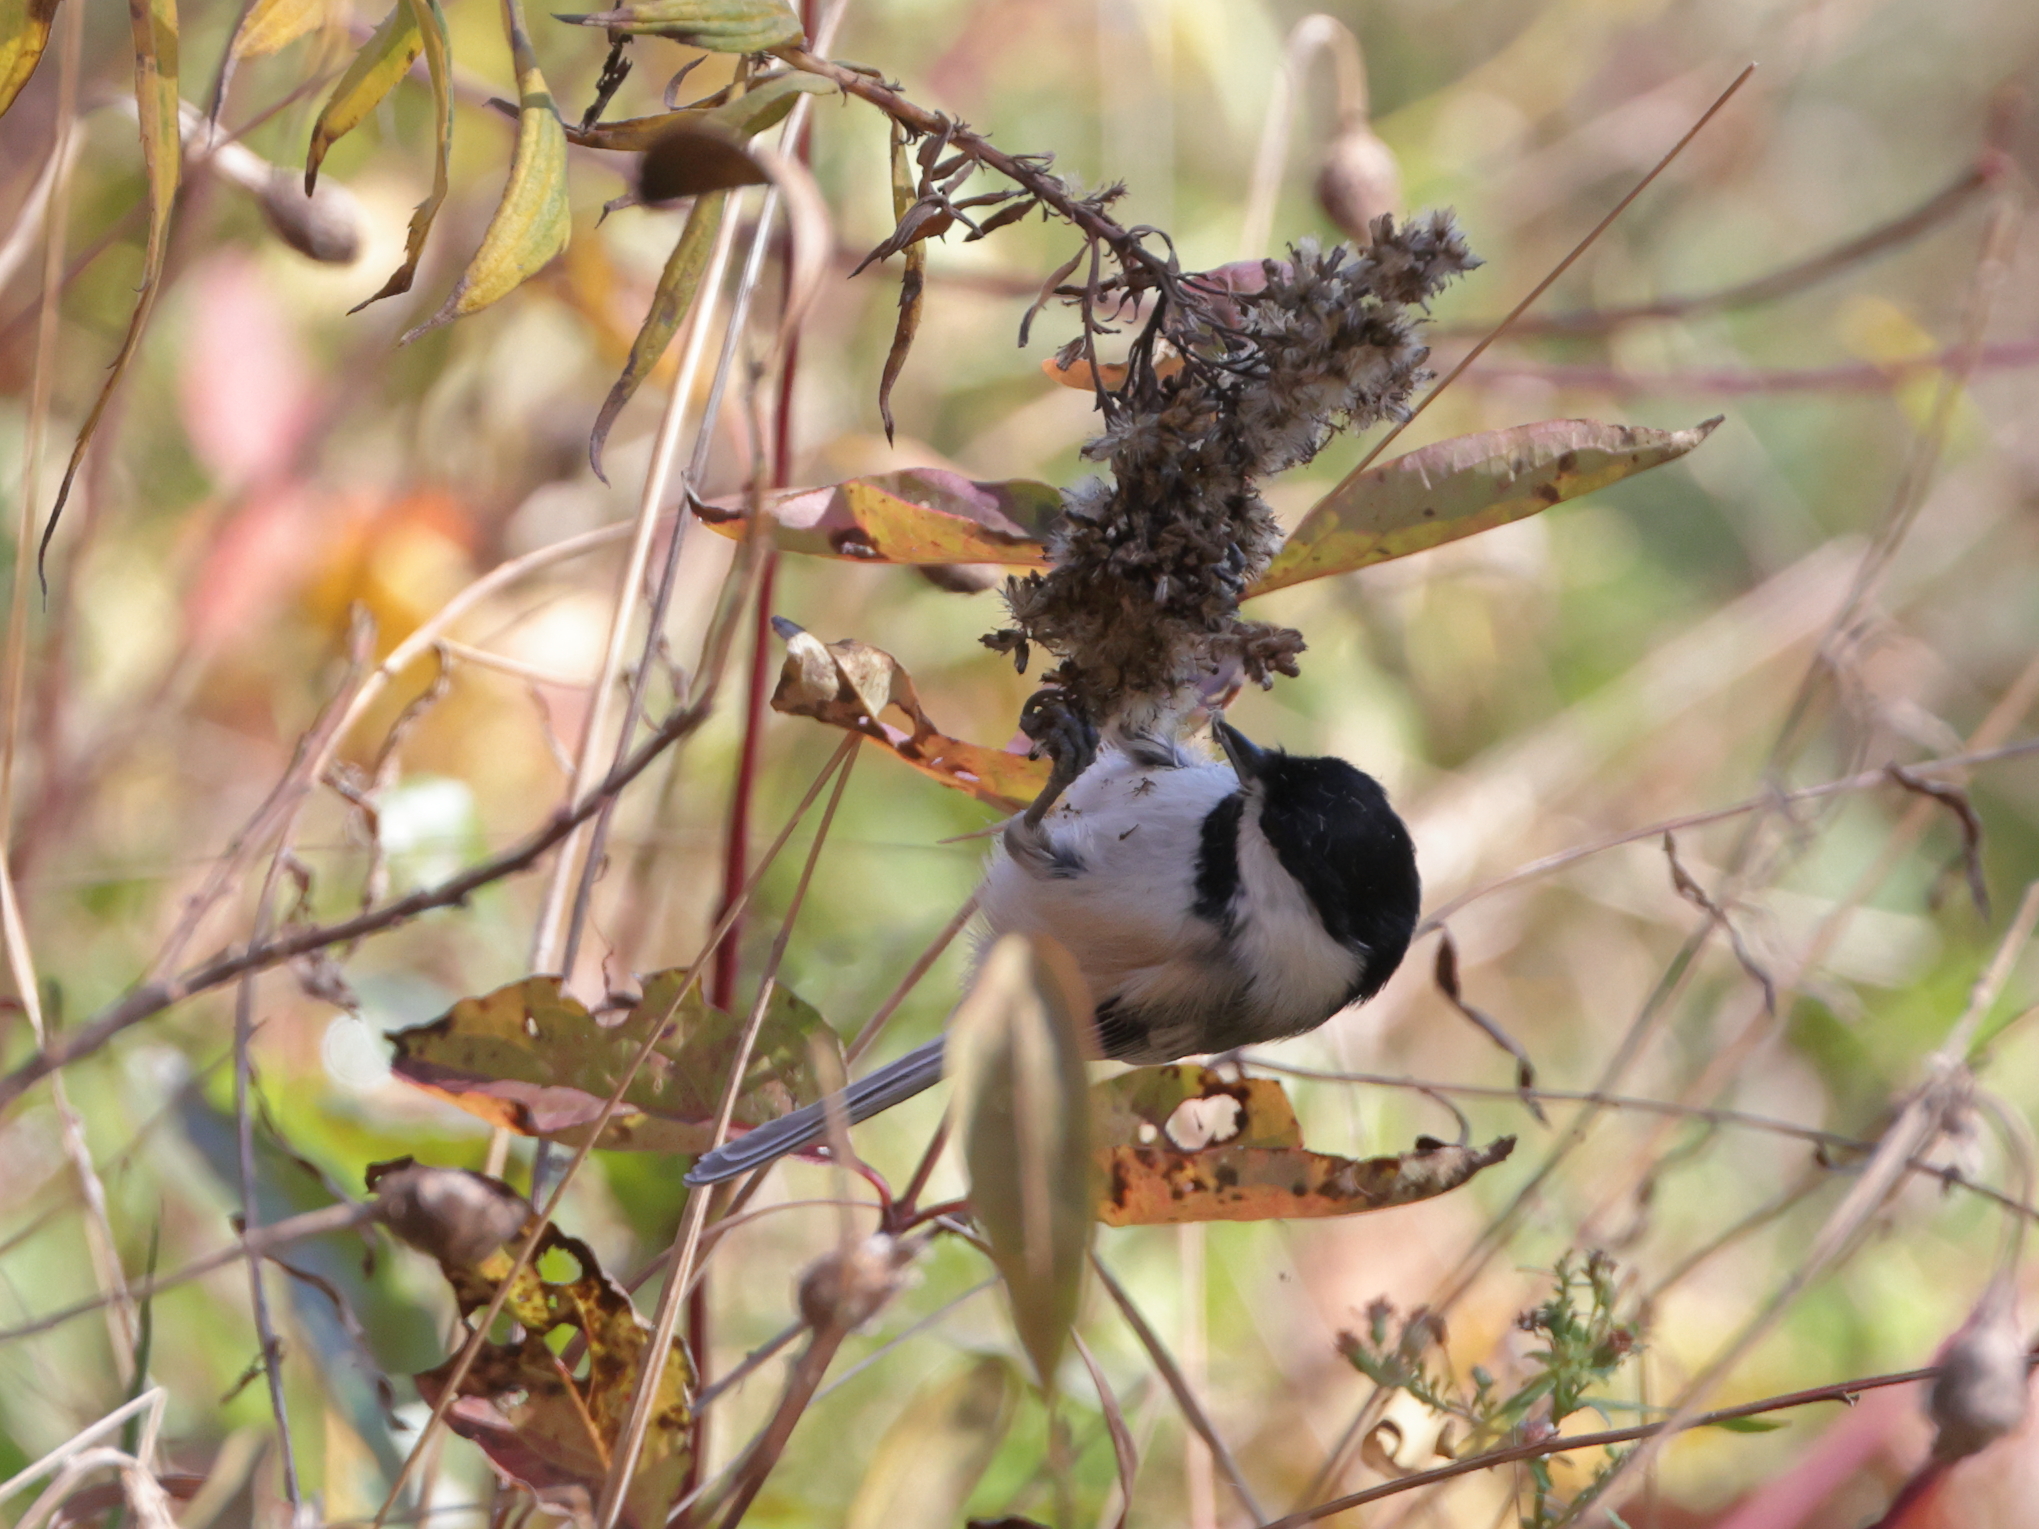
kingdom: Animalia
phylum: Chordata
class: Aves
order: Passeriformes
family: Paridae
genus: Poecile
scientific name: Poecile atricapillus
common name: Black-capped chickadee
